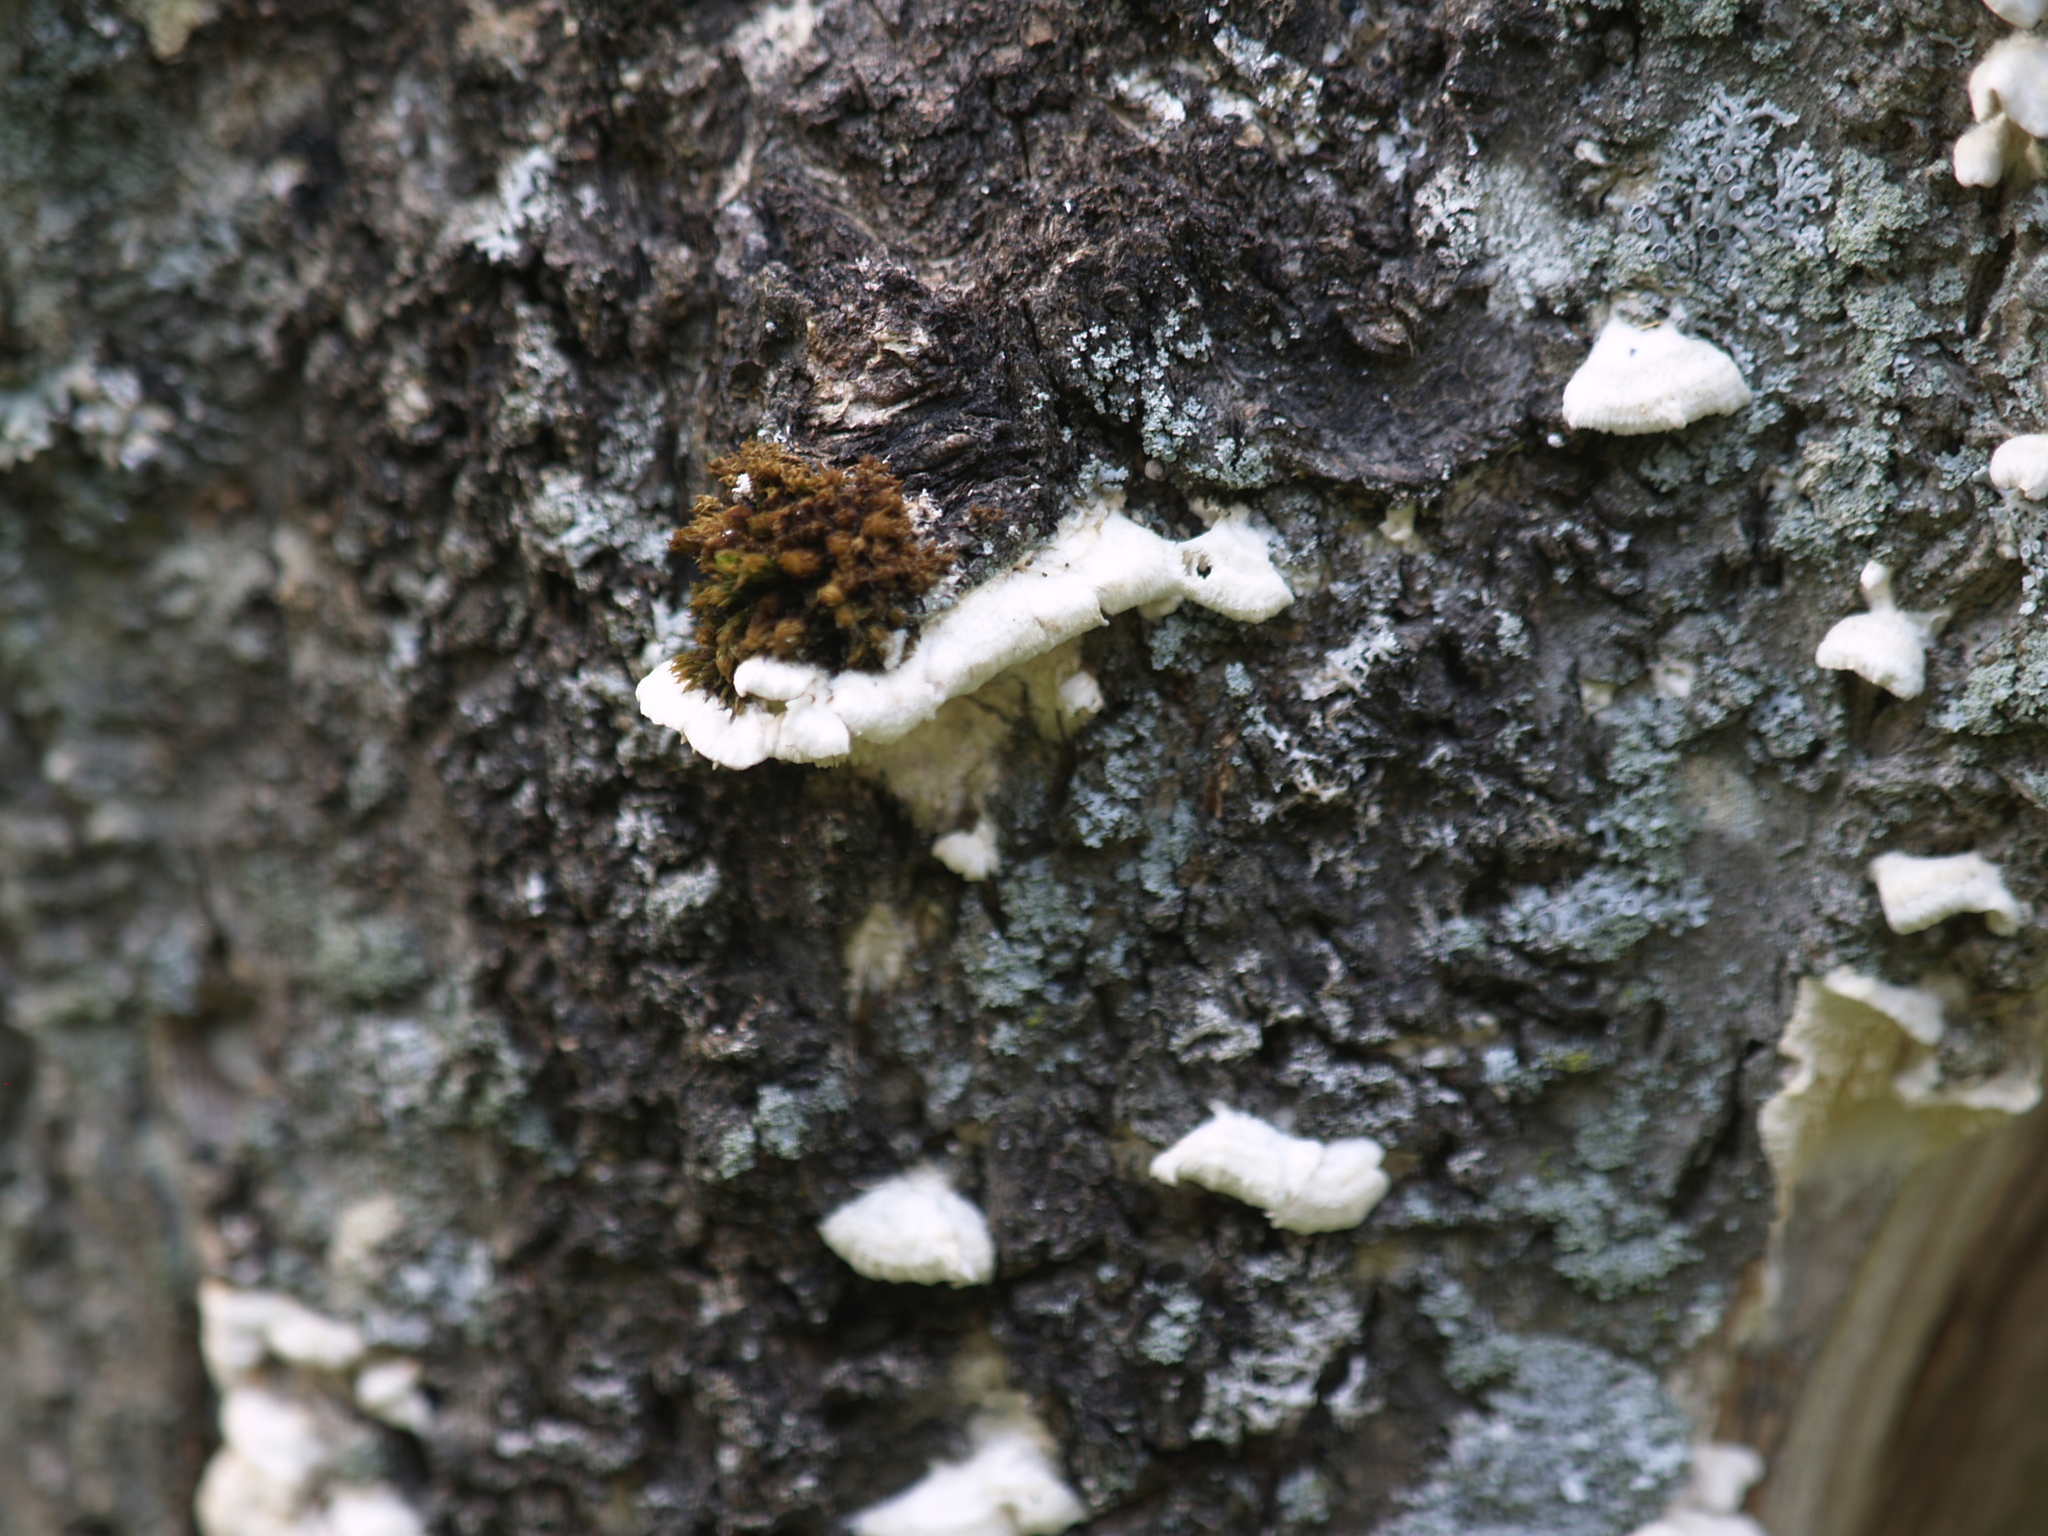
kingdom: Plantae
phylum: Bryophyta
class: Bryopsida
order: Orthotrichales
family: Orthotrichaceae
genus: Ulota
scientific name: Ulota crispa
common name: Crisped pincushion moss
